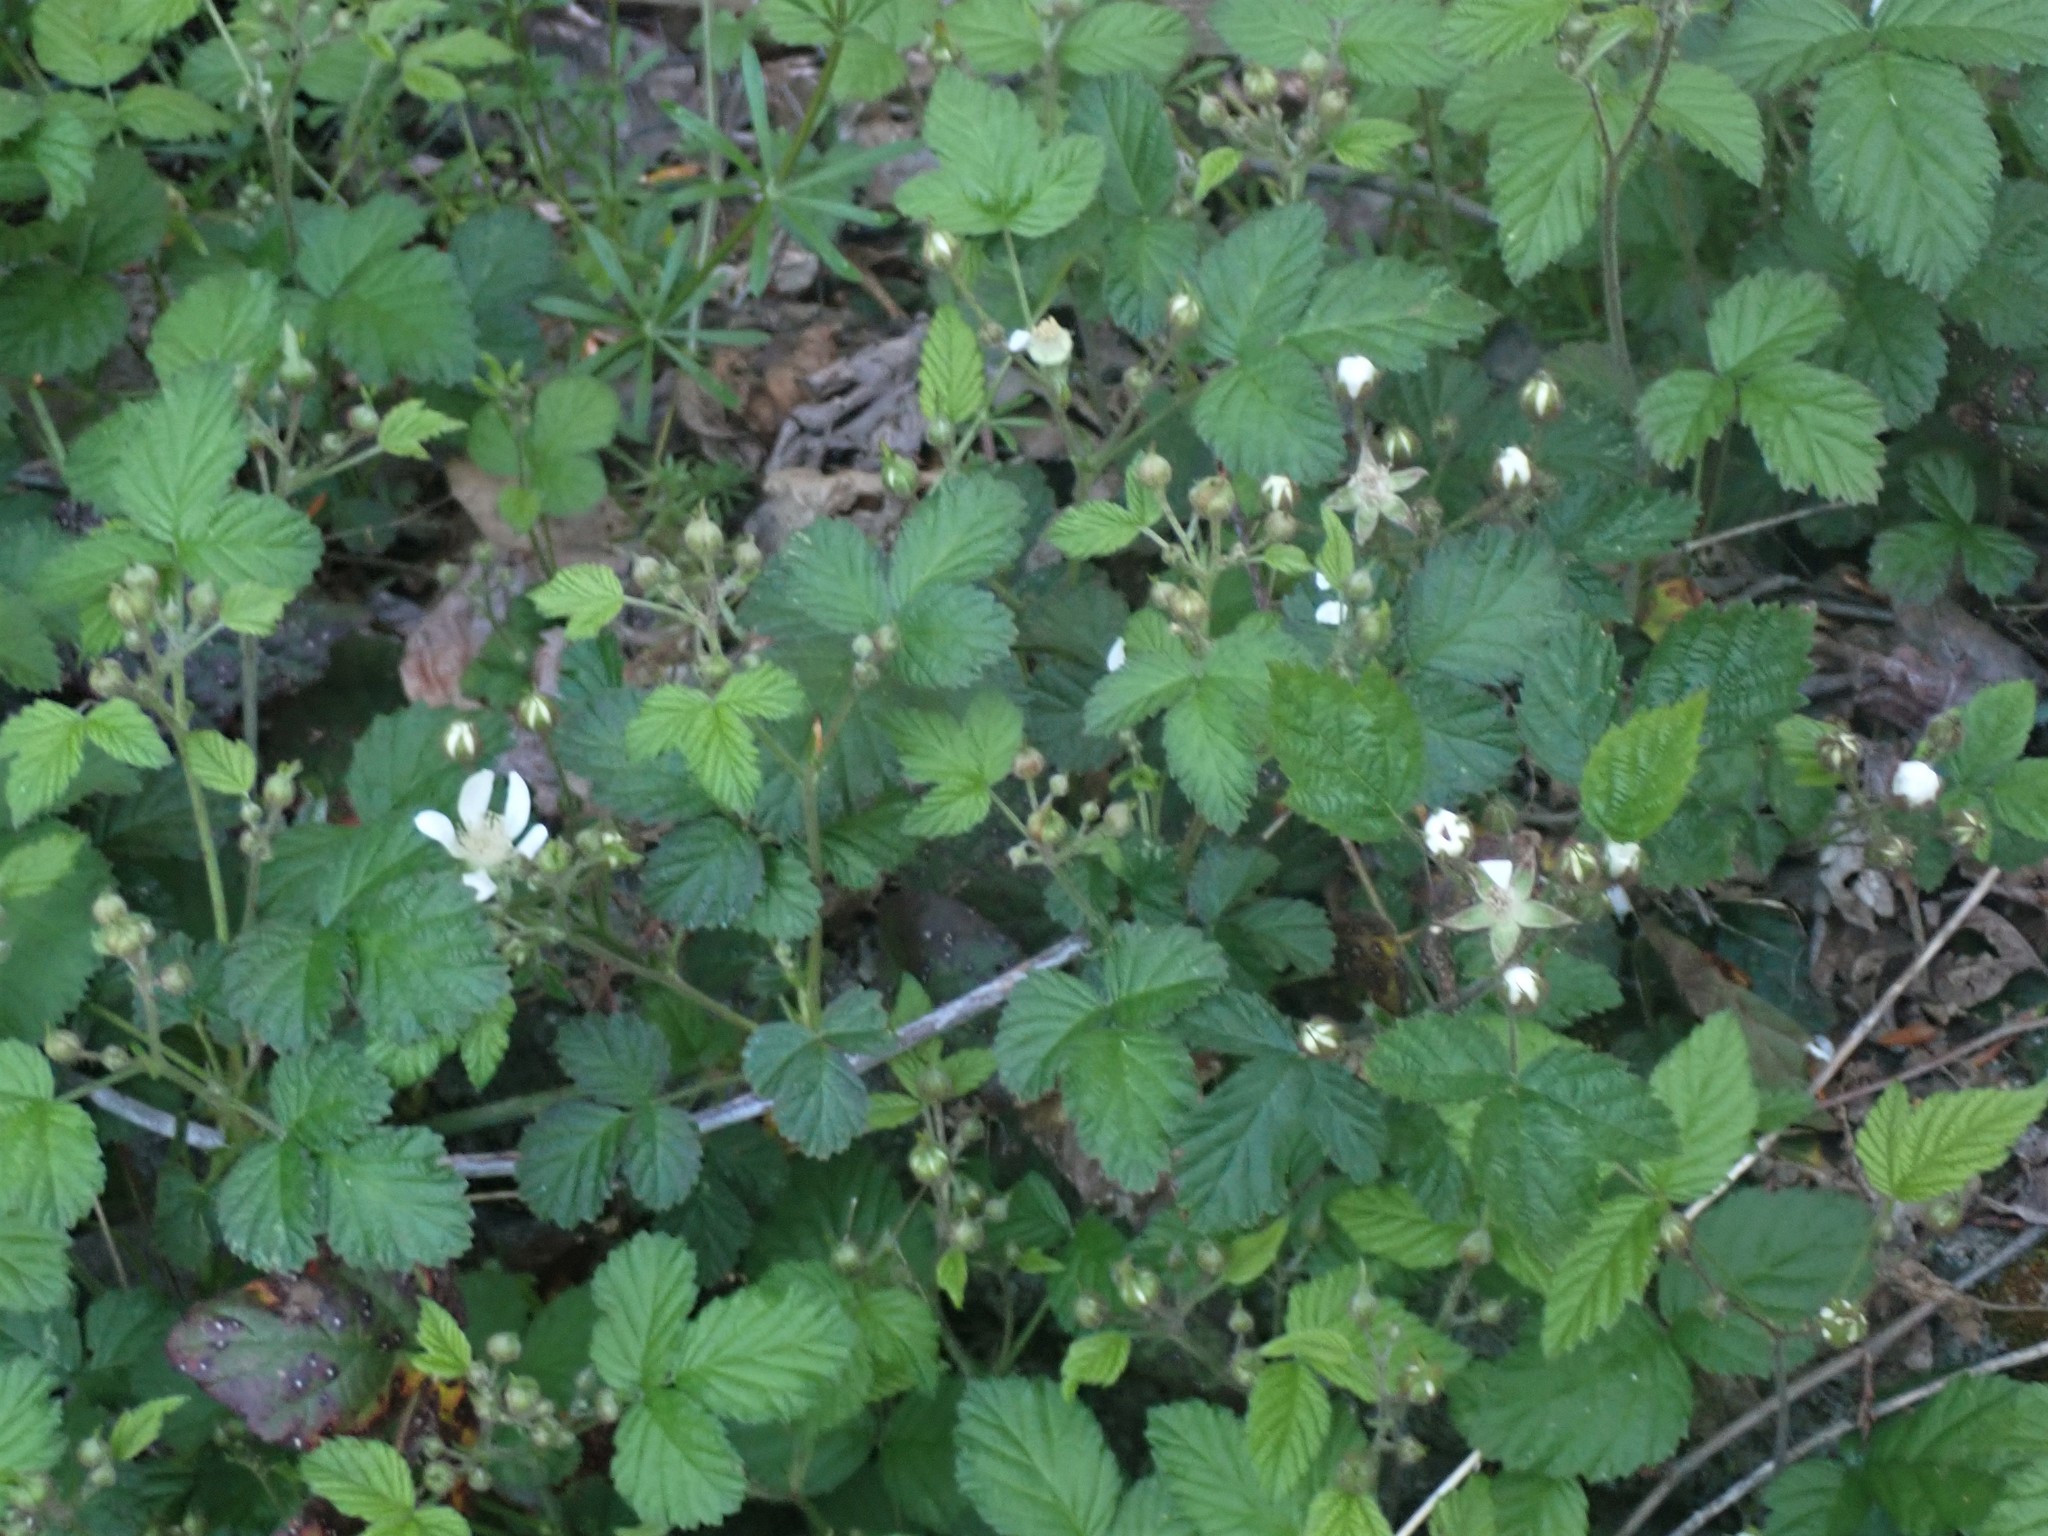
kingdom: Plantae
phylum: Tracheophyta
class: Magnoliopsida
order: Rosales
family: Rosaceae
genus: Rubus
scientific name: Rubus ursinus
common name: Pacific blackberry
